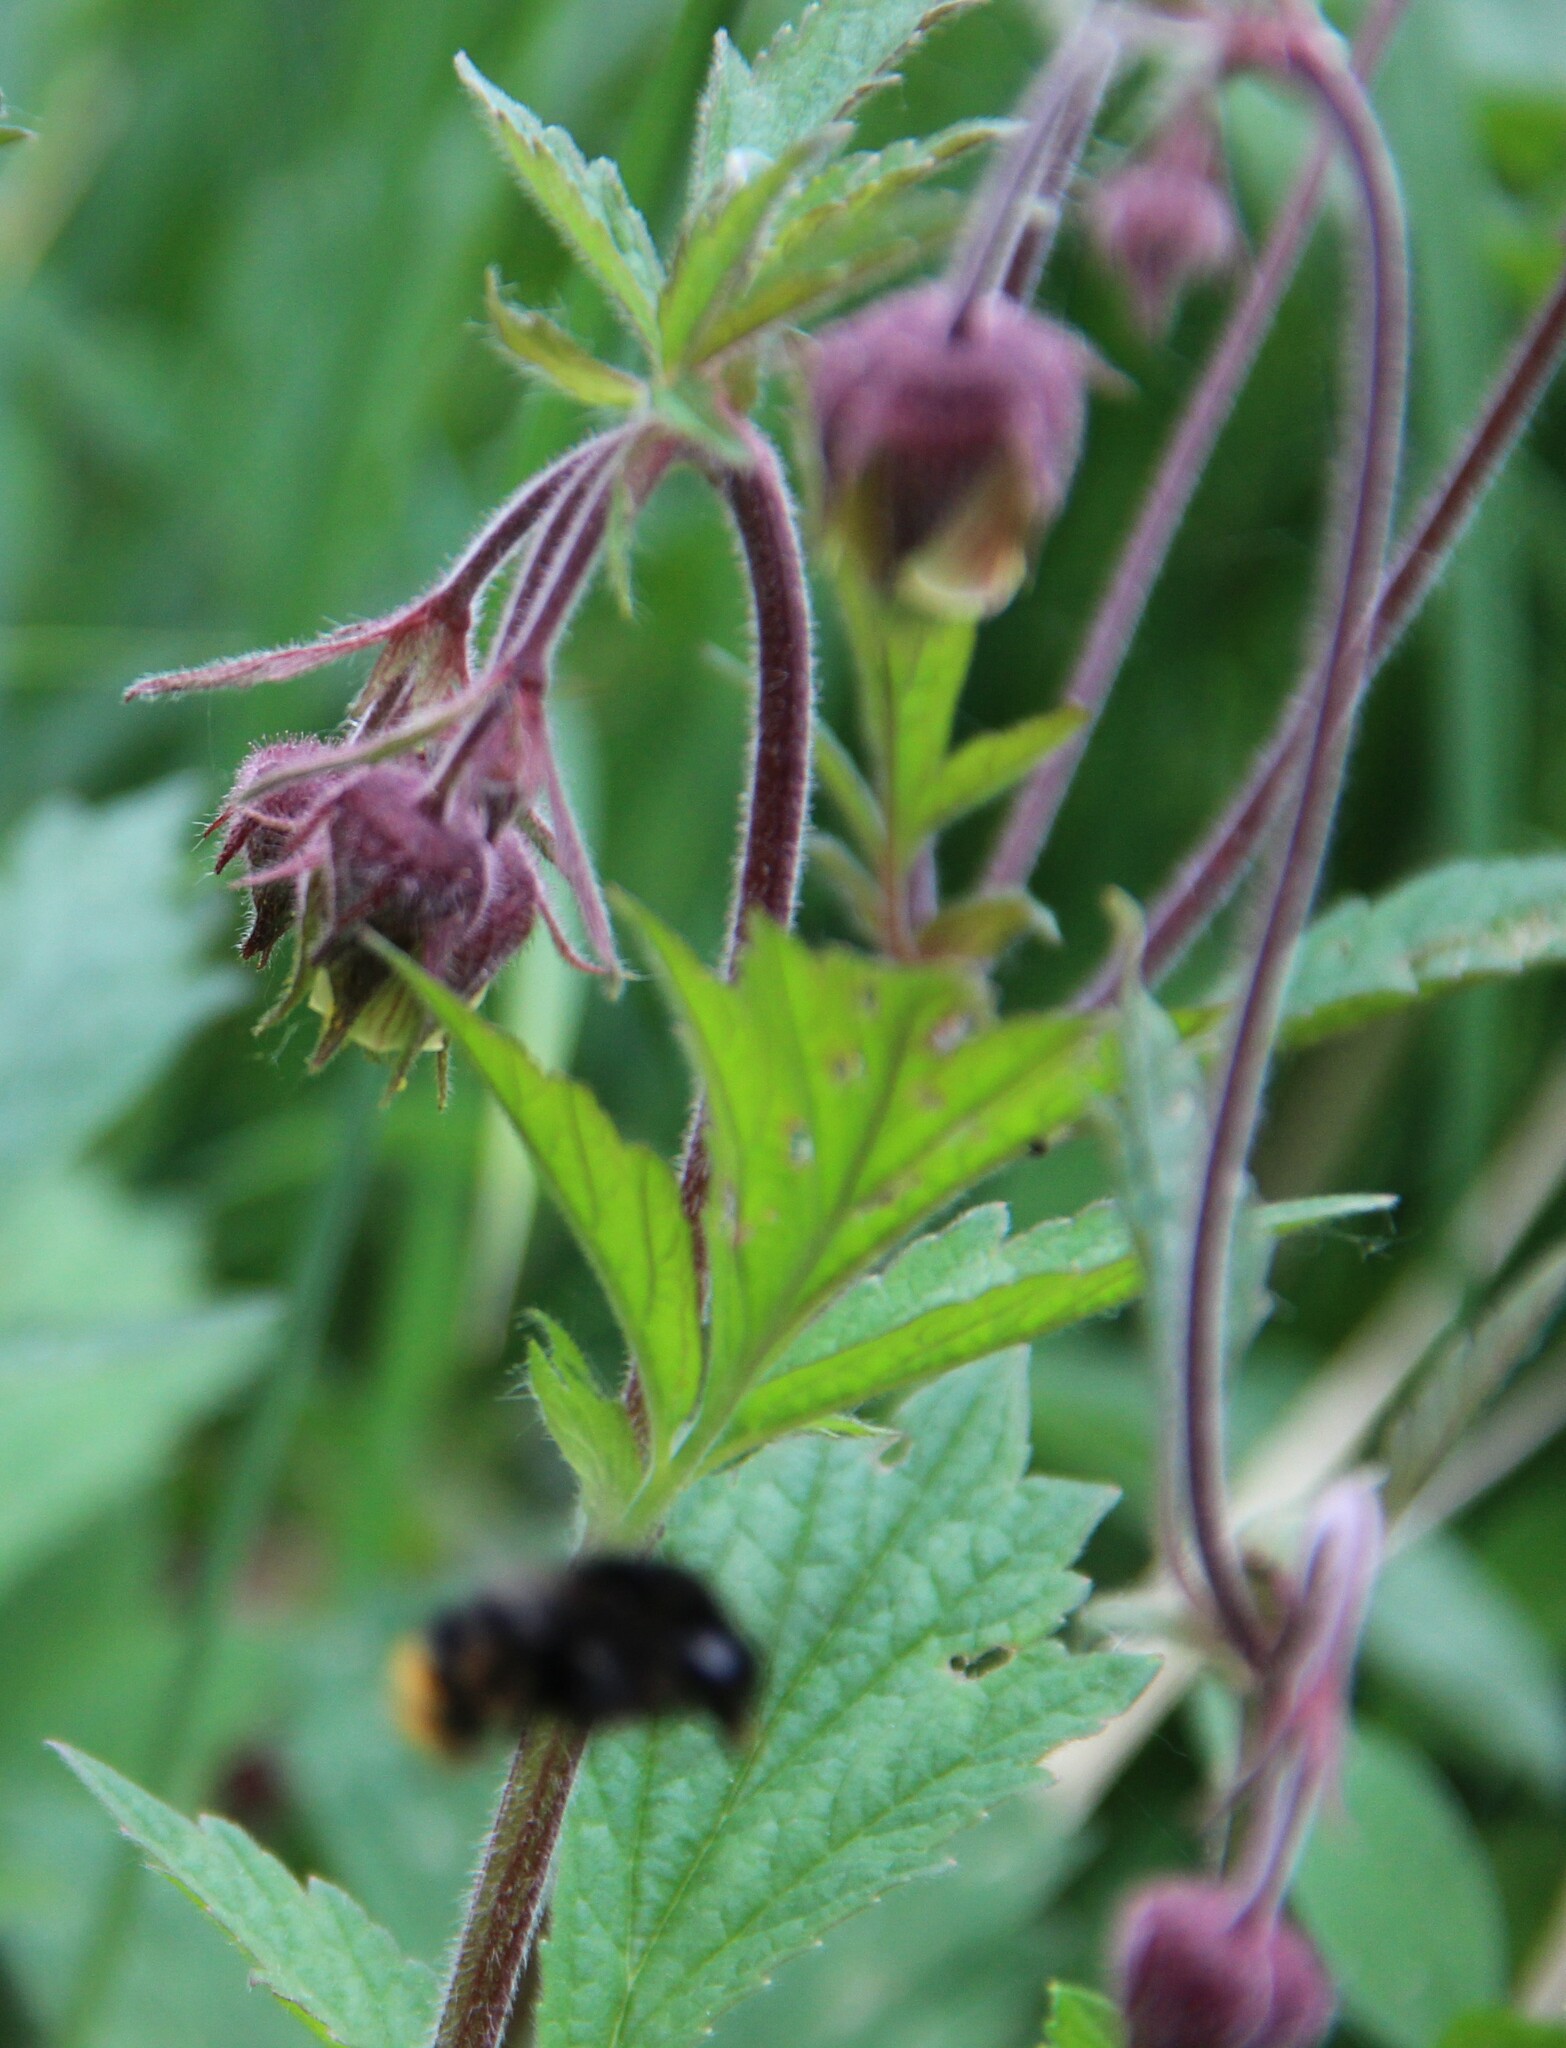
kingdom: Plantae
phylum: Tracheophyta
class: Magnoliopsida
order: Rosales
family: Rosaceae
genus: Geum
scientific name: Geum rivale
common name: Water avens
